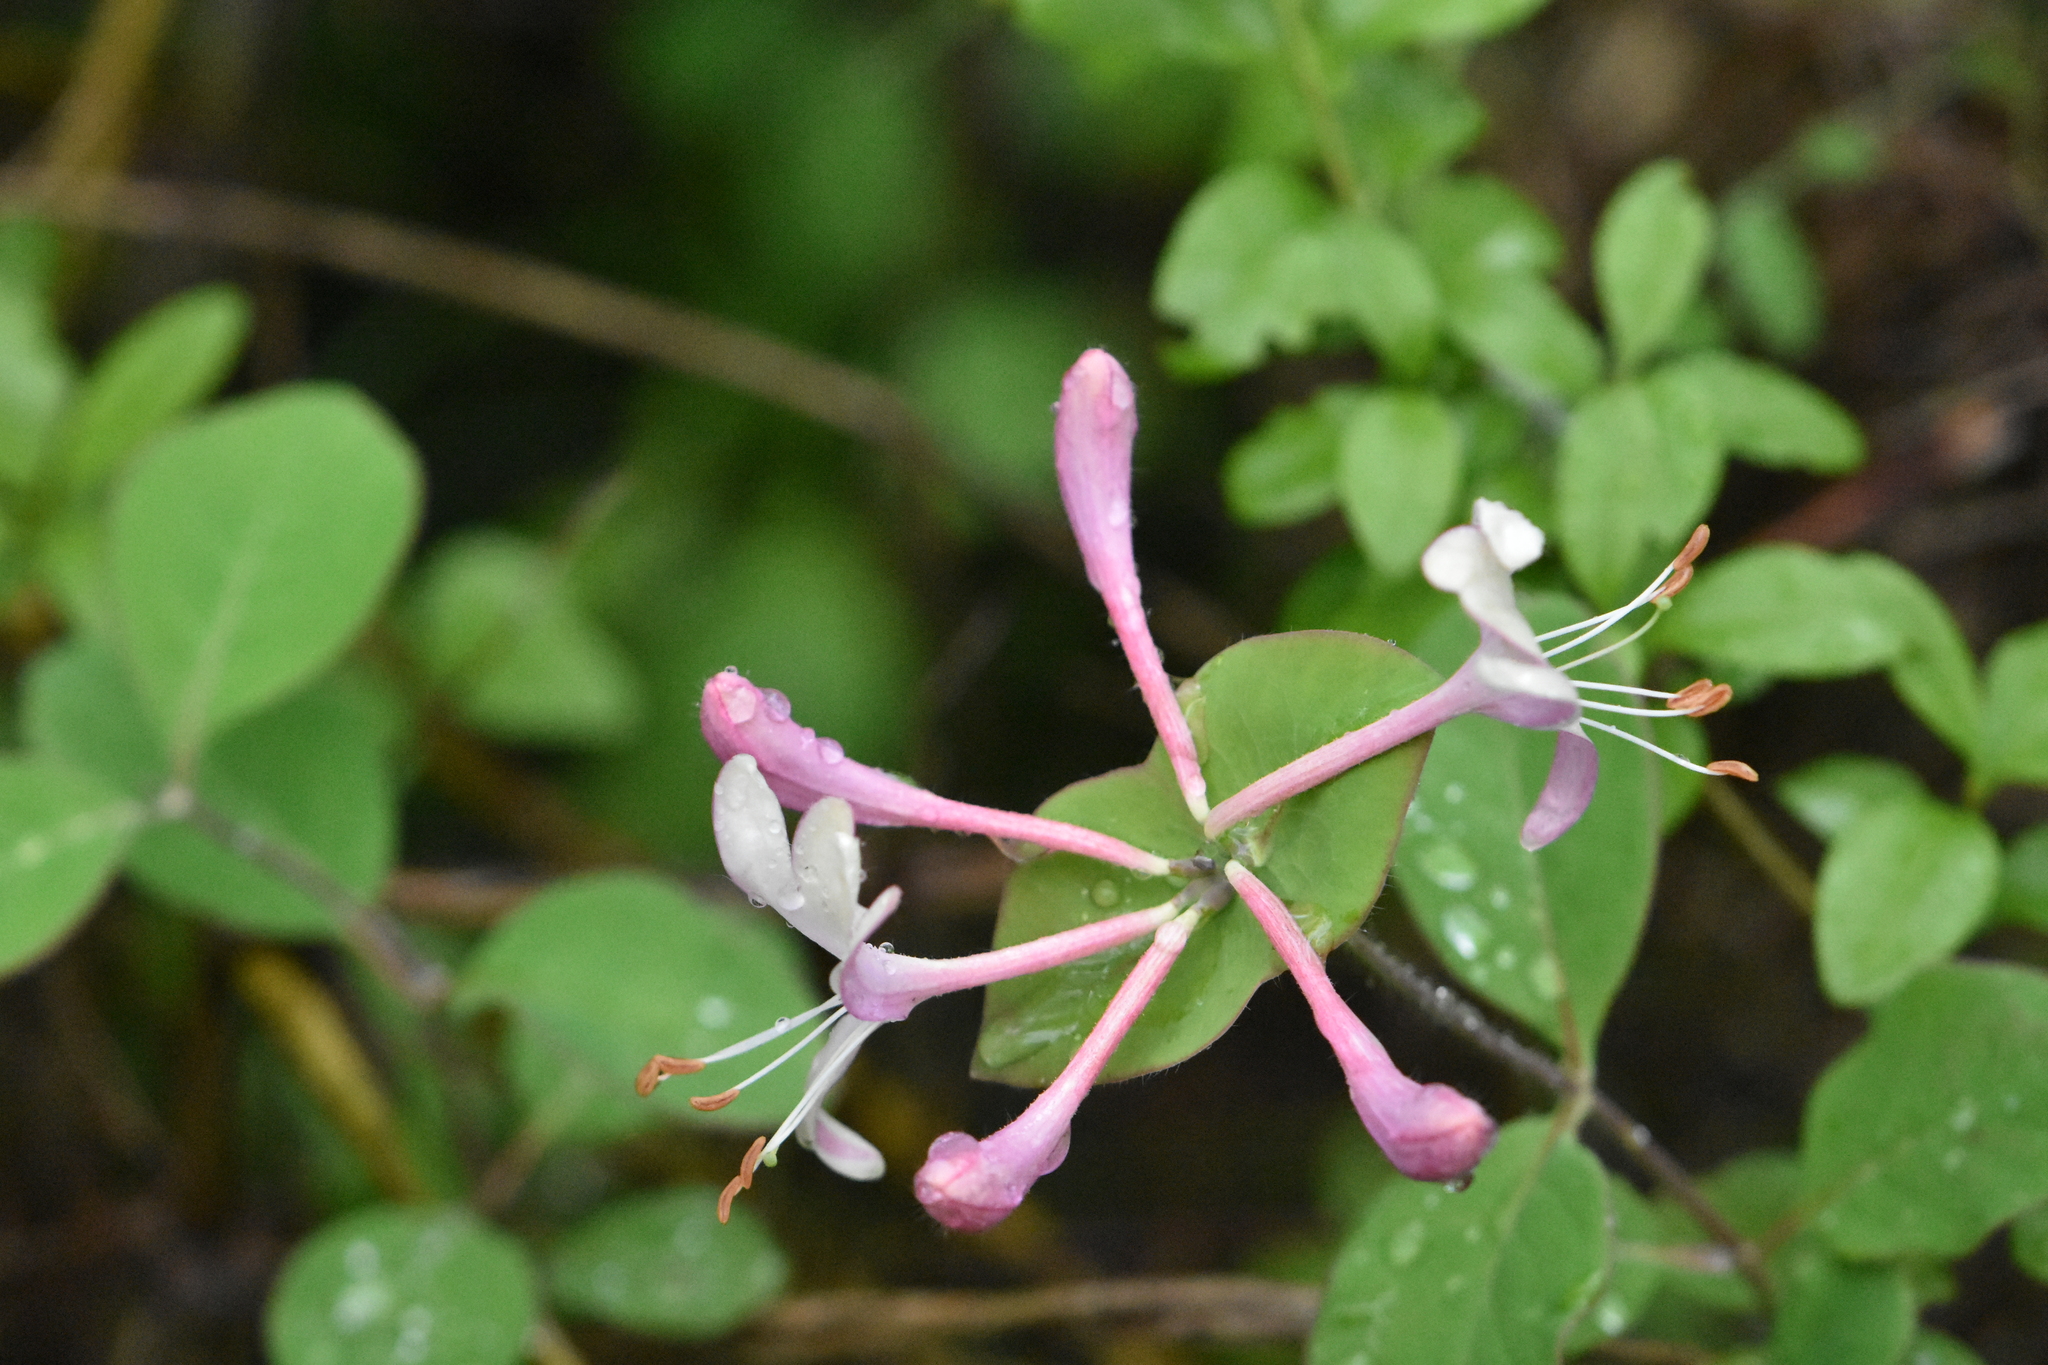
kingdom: Plantae
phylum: Tracheophyta
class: Magnoliopsida
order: Dipsacales
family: Caprifoliaceae
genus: Lonicera
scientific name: Lonicera caprifolium
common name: Perfoliate honeysuckle
